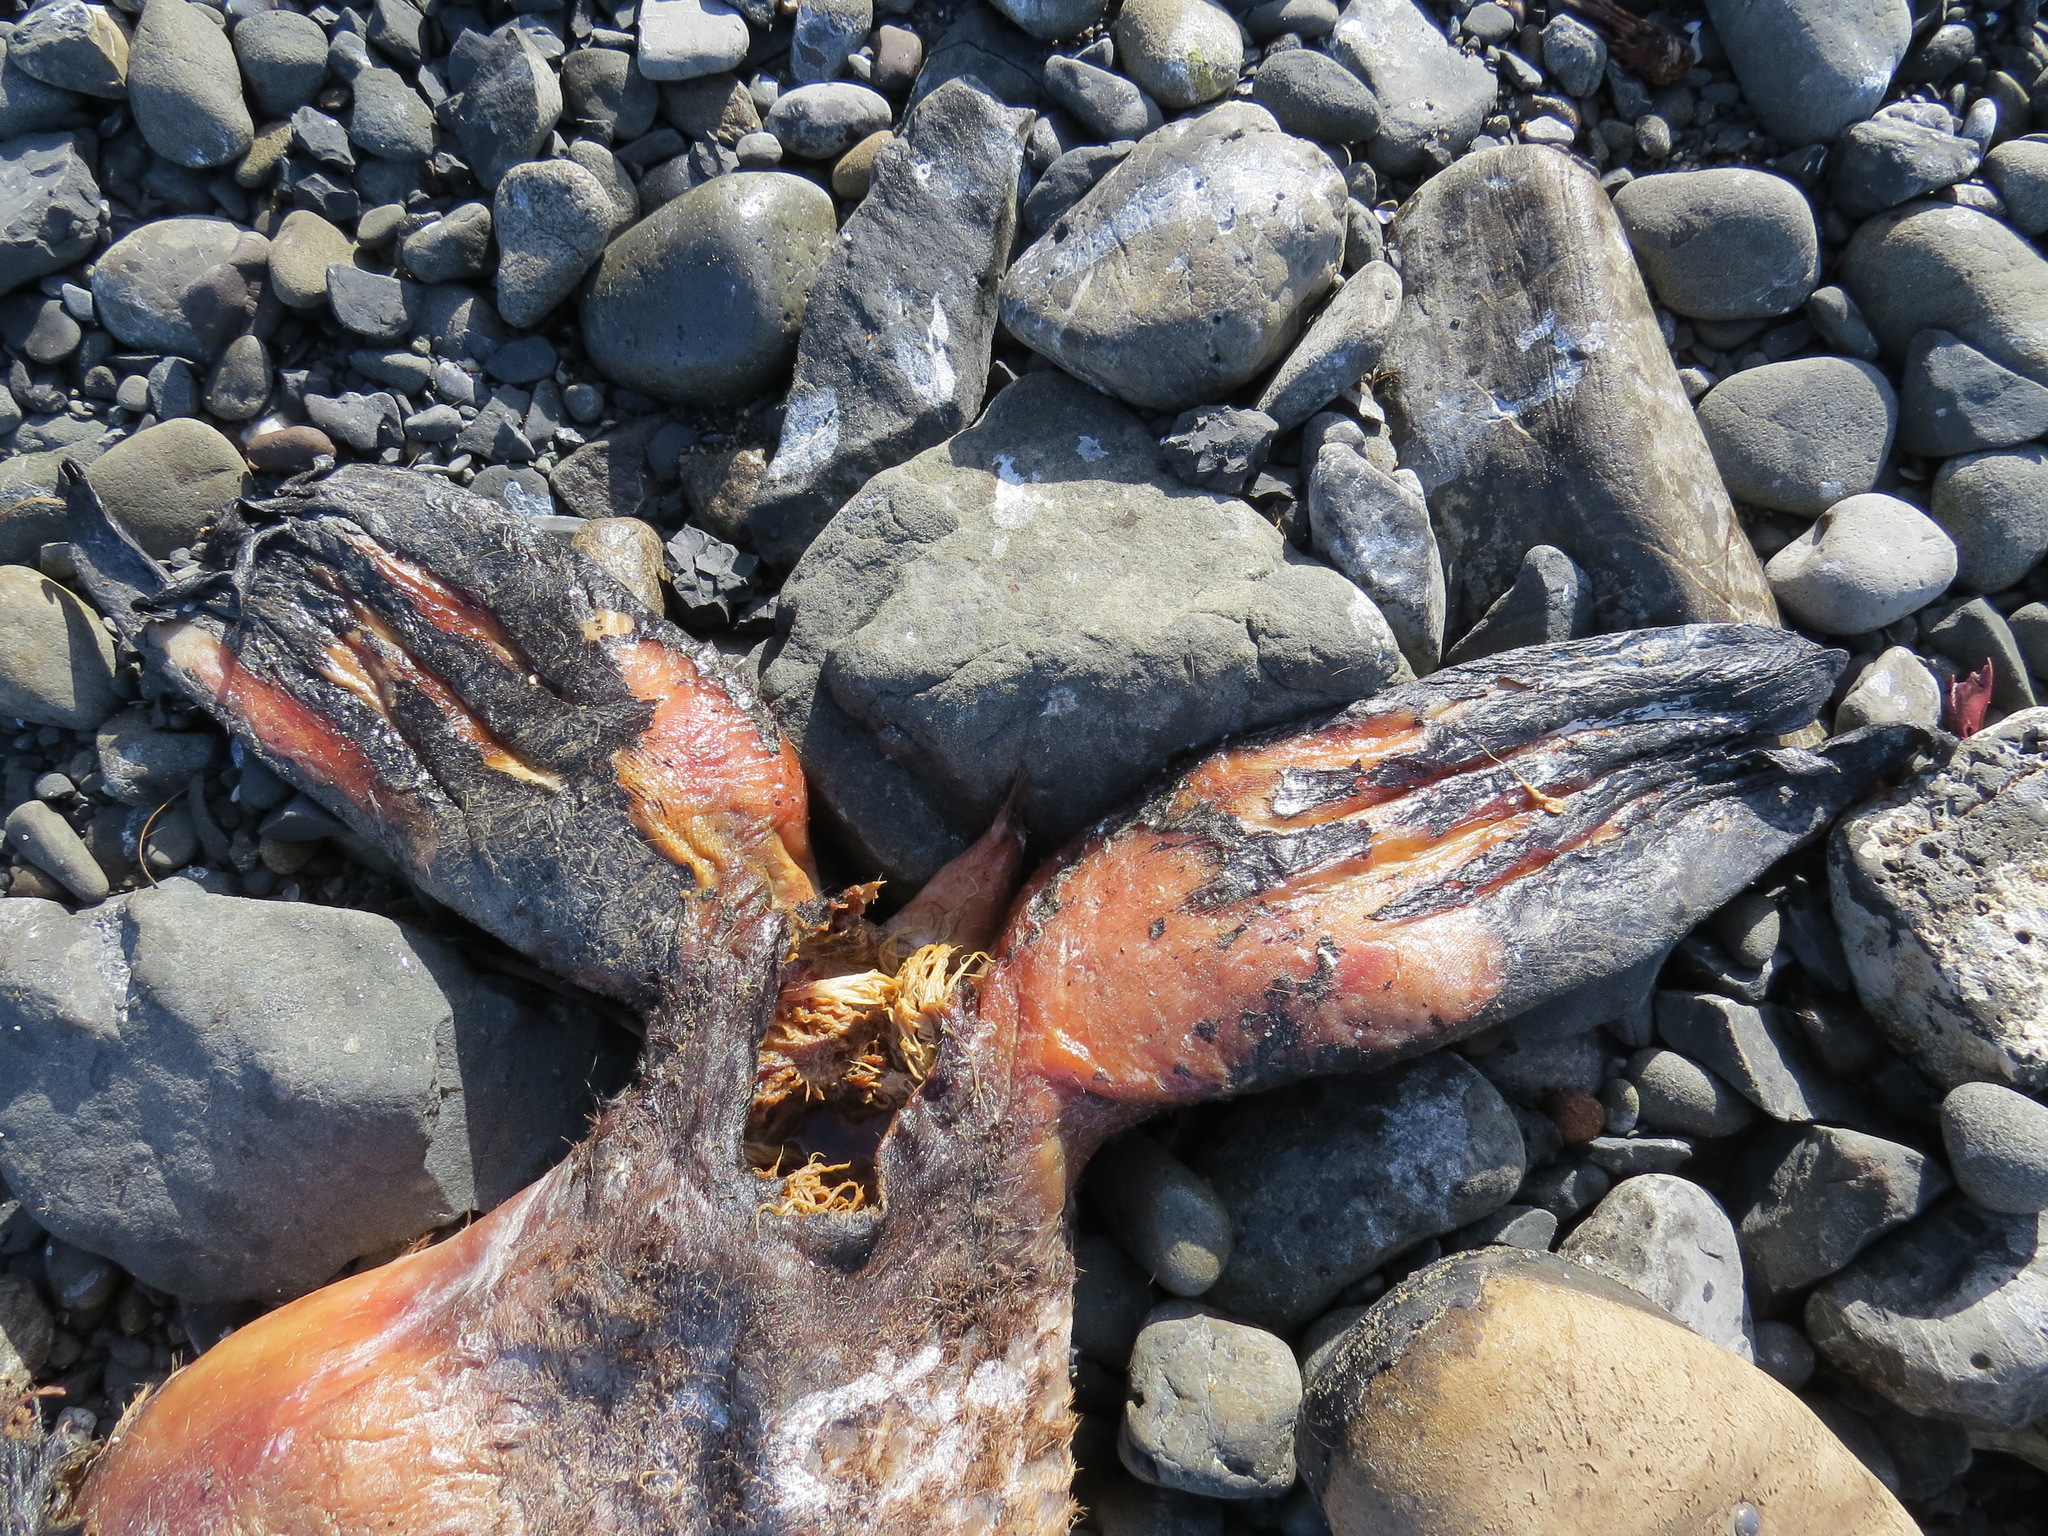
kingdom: Animalia
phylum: Chordata
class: Mammalia
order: Carnivora
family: Otariidae
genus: Zalophus
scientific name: Zalophus californianus
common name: California sea lion
